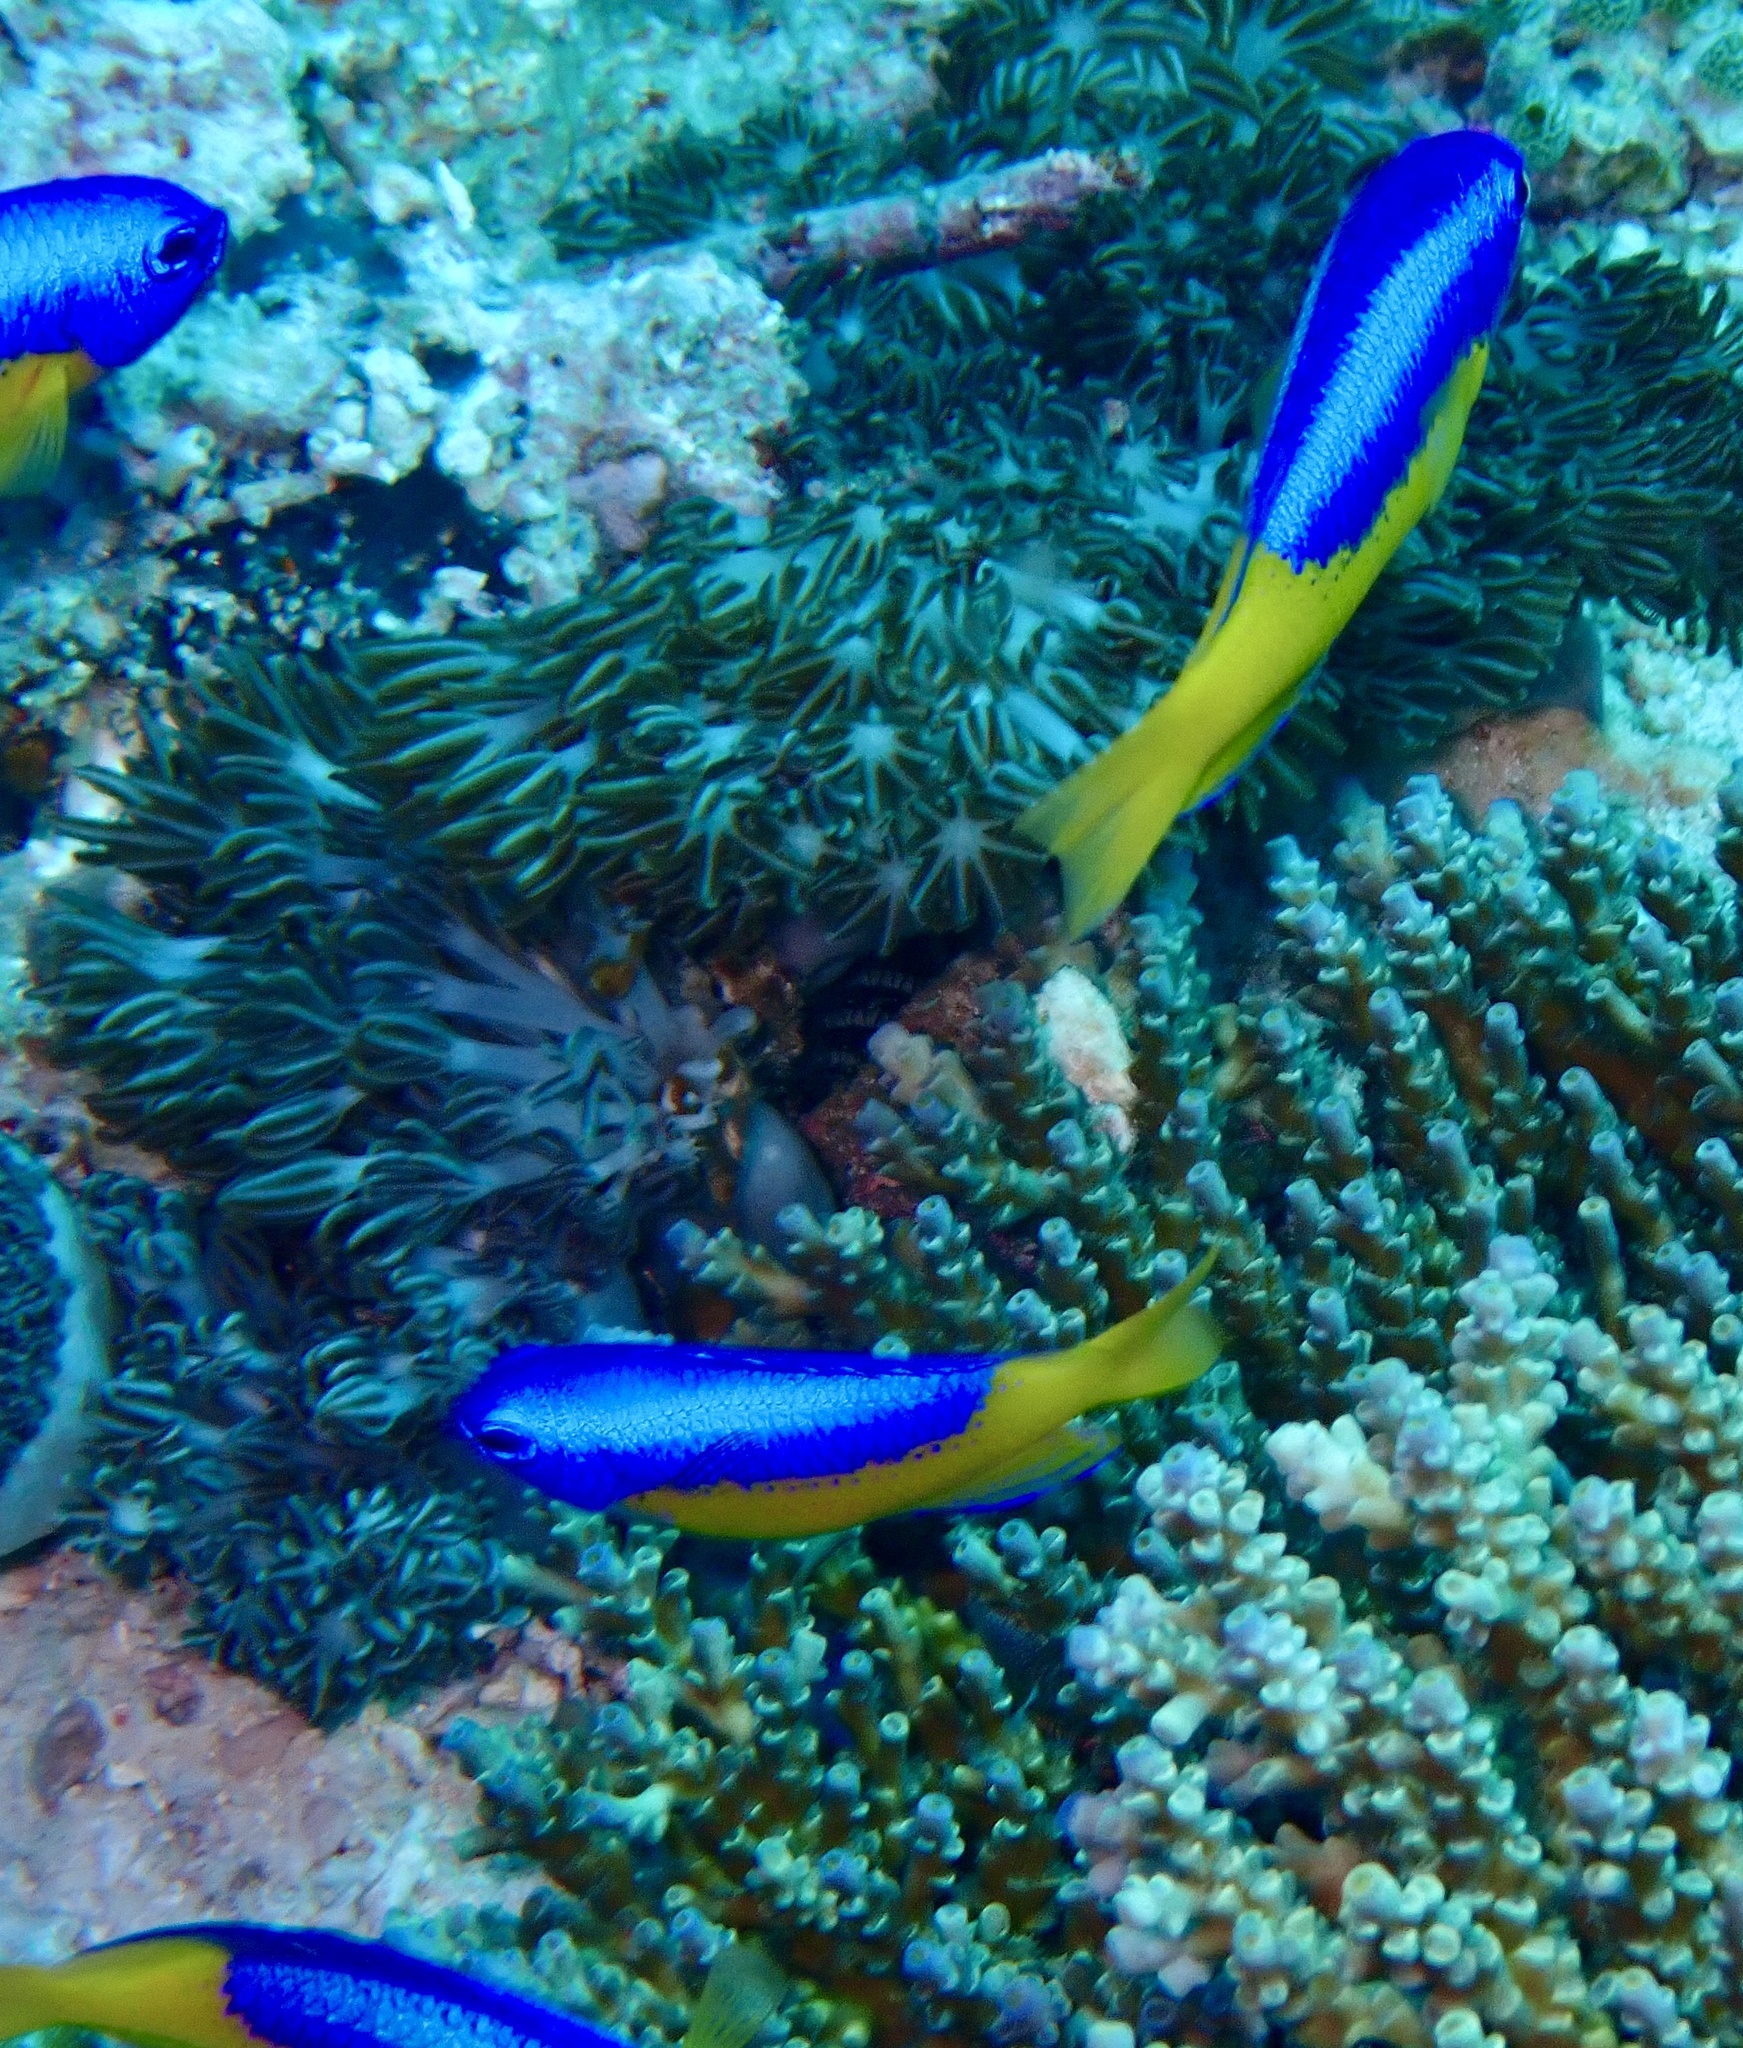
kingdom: Animalia
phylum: Chordata
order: Perciformes
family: Pomacentridae
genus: Pomacentrus
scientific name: Pomacentrus auriventris
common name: Goldbelly damsel
